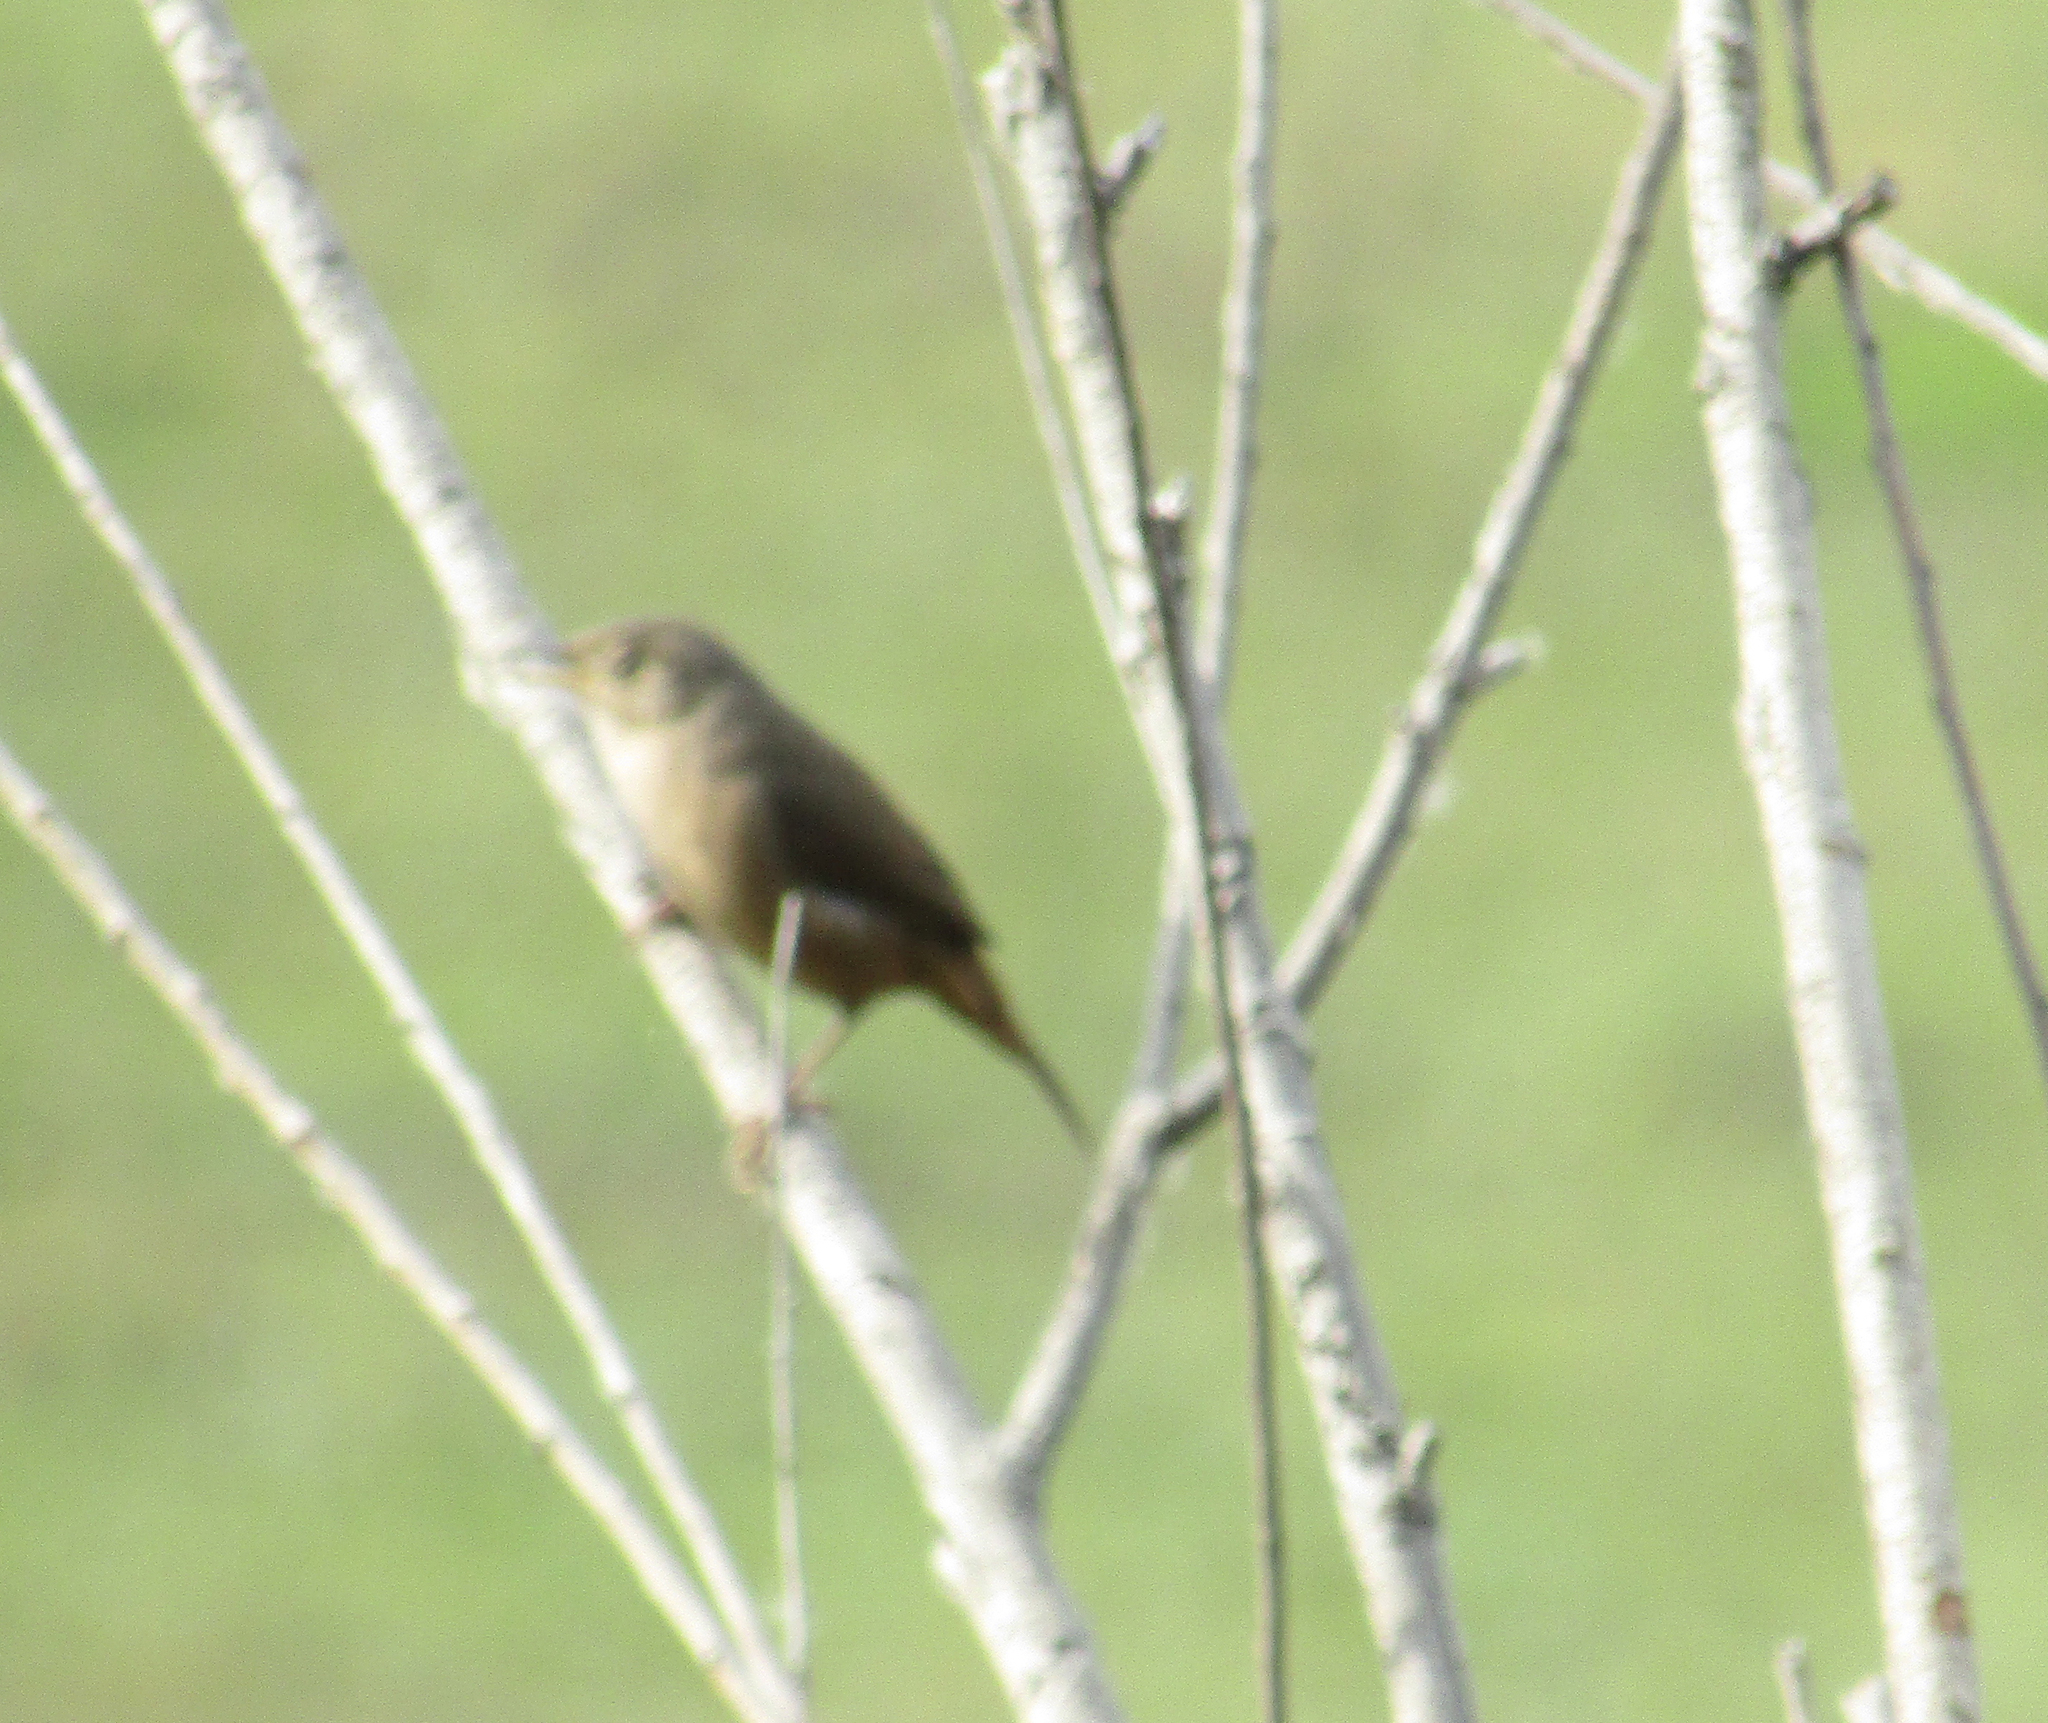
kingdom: Animalia
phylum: Chordata
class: Aves
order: Passeriformes
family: Troglodytidae
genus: Troglodytes
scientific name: Troglodytes aedon
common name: House wren
